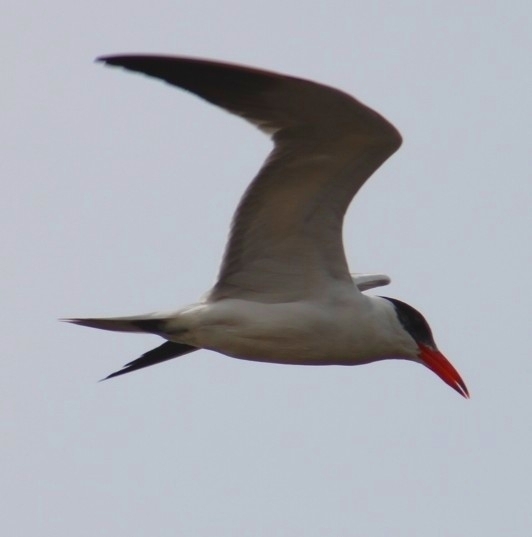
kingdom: Animalia
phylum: Chordata
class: Aves
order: Charadriiformes
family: Laridae
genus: Hydroprogne
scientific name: Hydroprogne caspia
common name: Caspian tern
